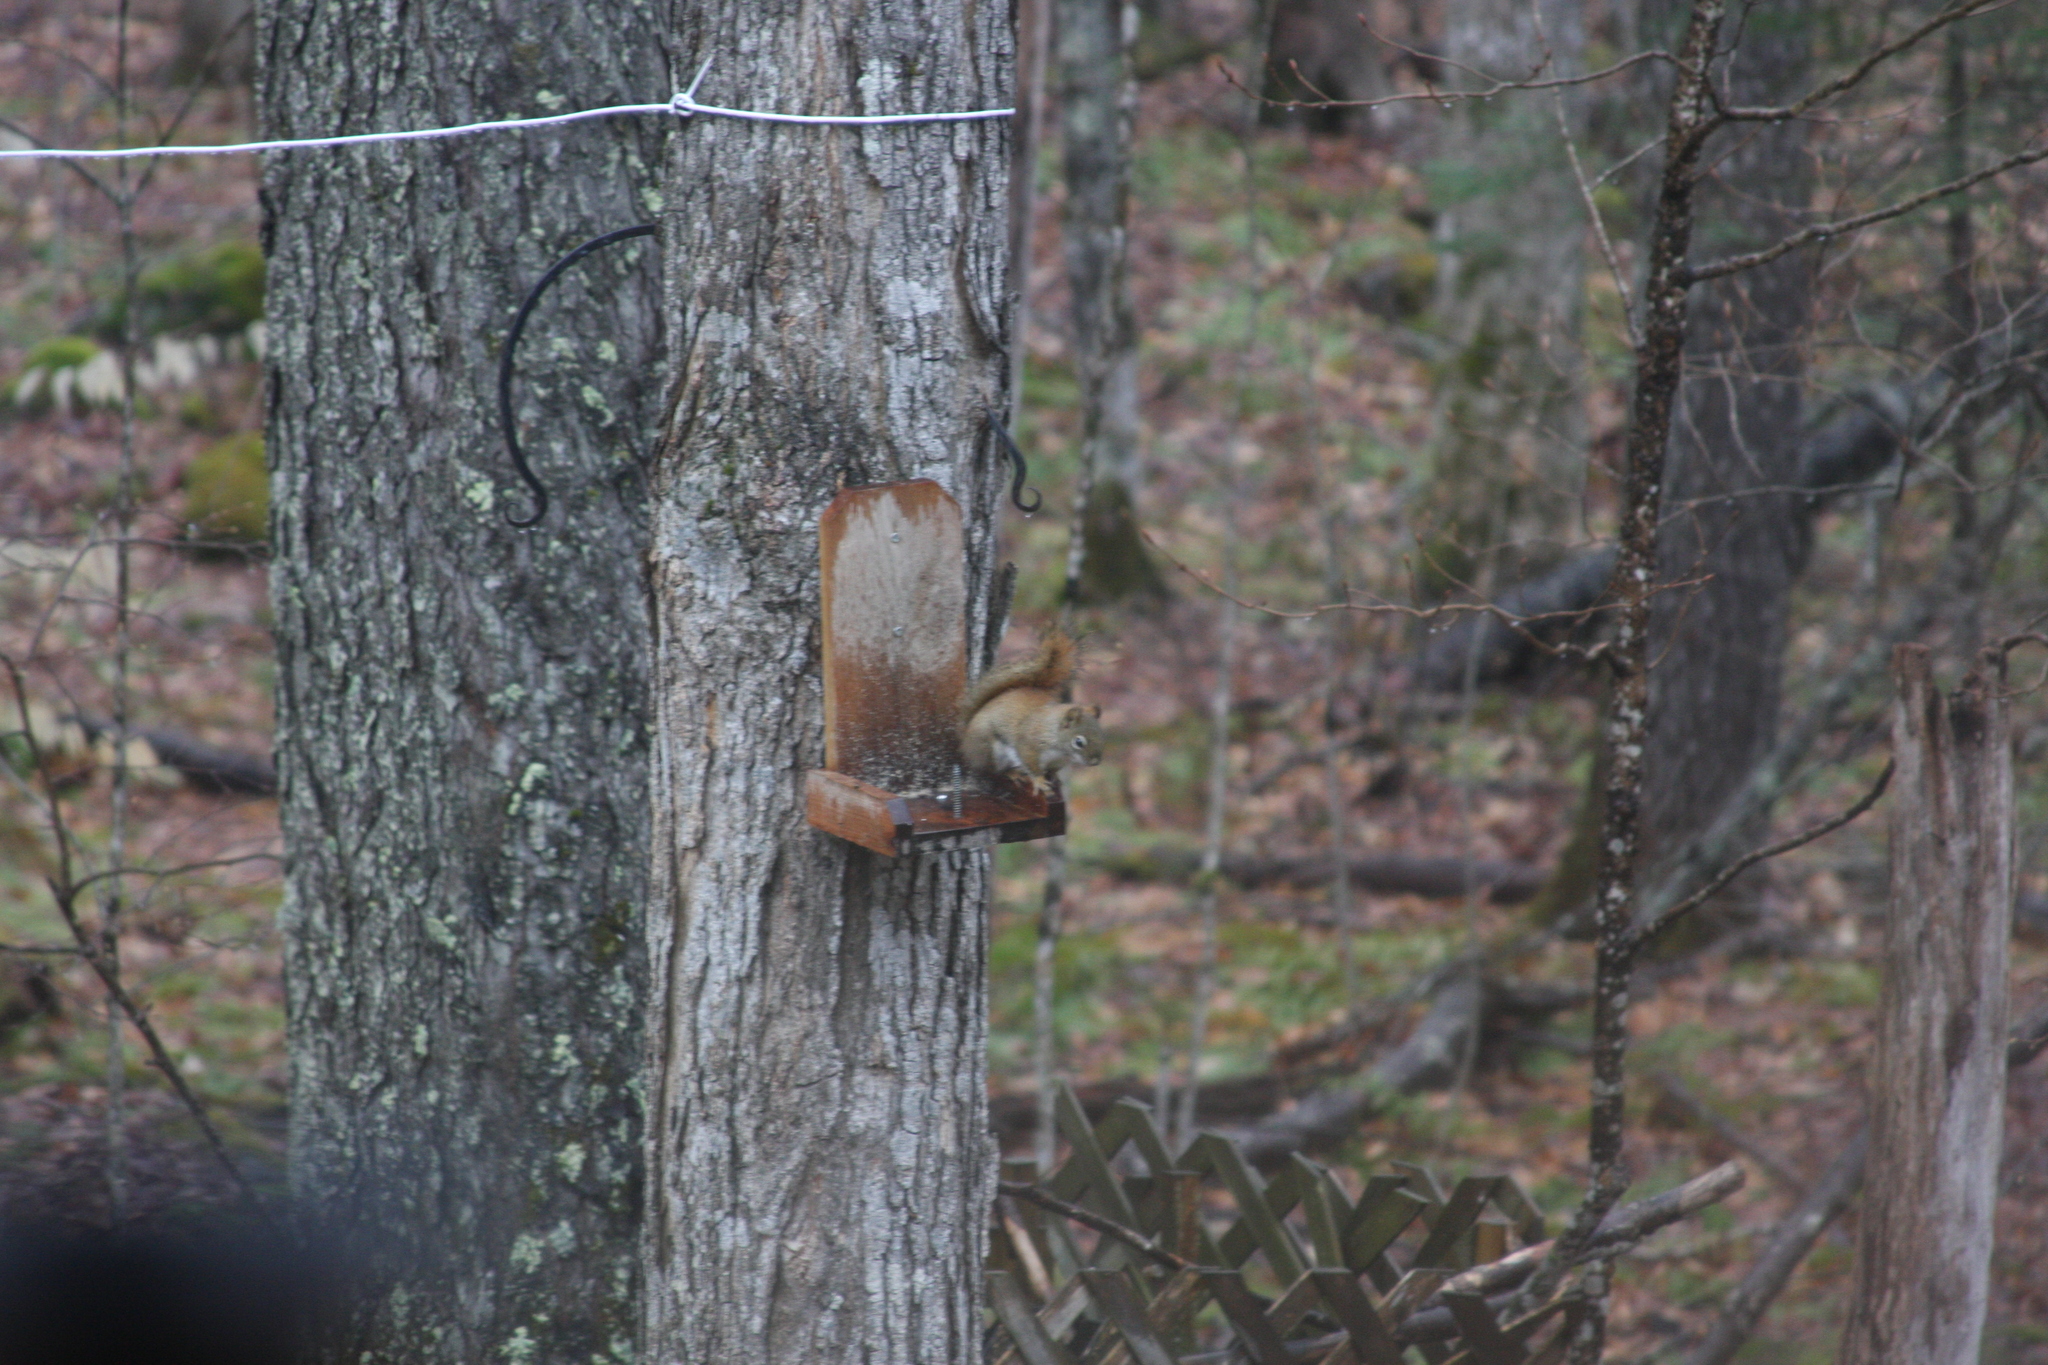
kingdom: Animalia
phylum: Chordata
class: Mammalia
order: Rodentia
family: Sciuridae
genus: Tamiasciurus
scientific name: Tamiasciurus hudsonicus
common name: Red squirrel
